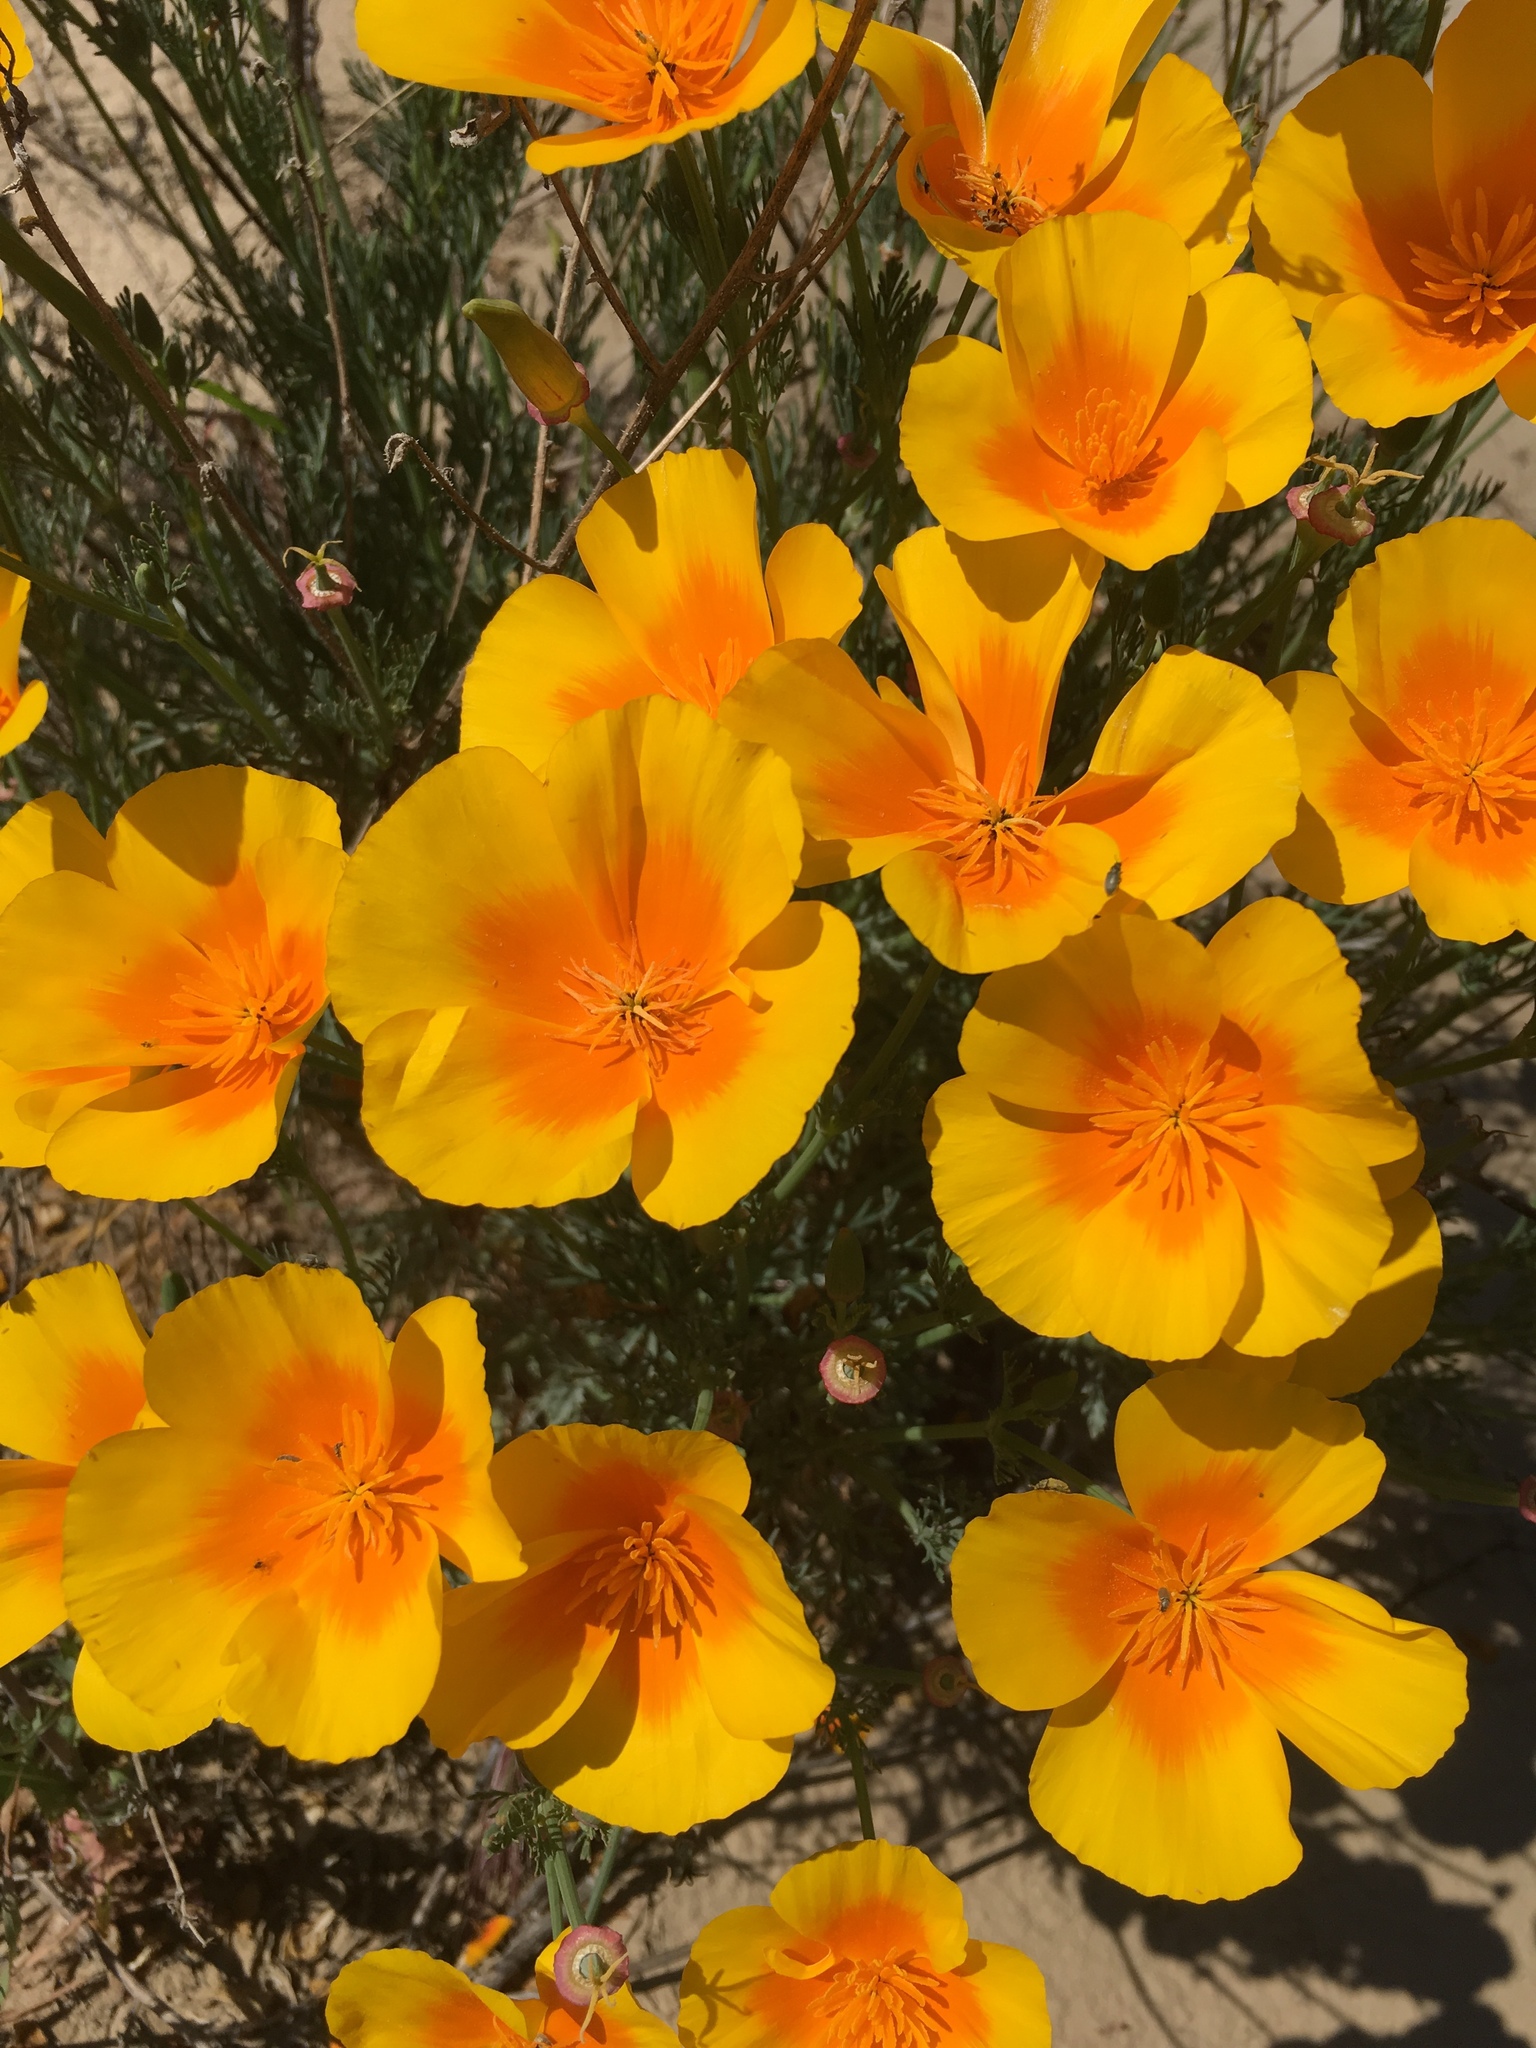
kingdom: Plantae
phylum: Tracheophyta
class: Magnoliopsida
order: Ranunculales
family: Papaveraceae
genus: Eschscholzia
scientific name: Eschscholzia californica
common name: California poppy
